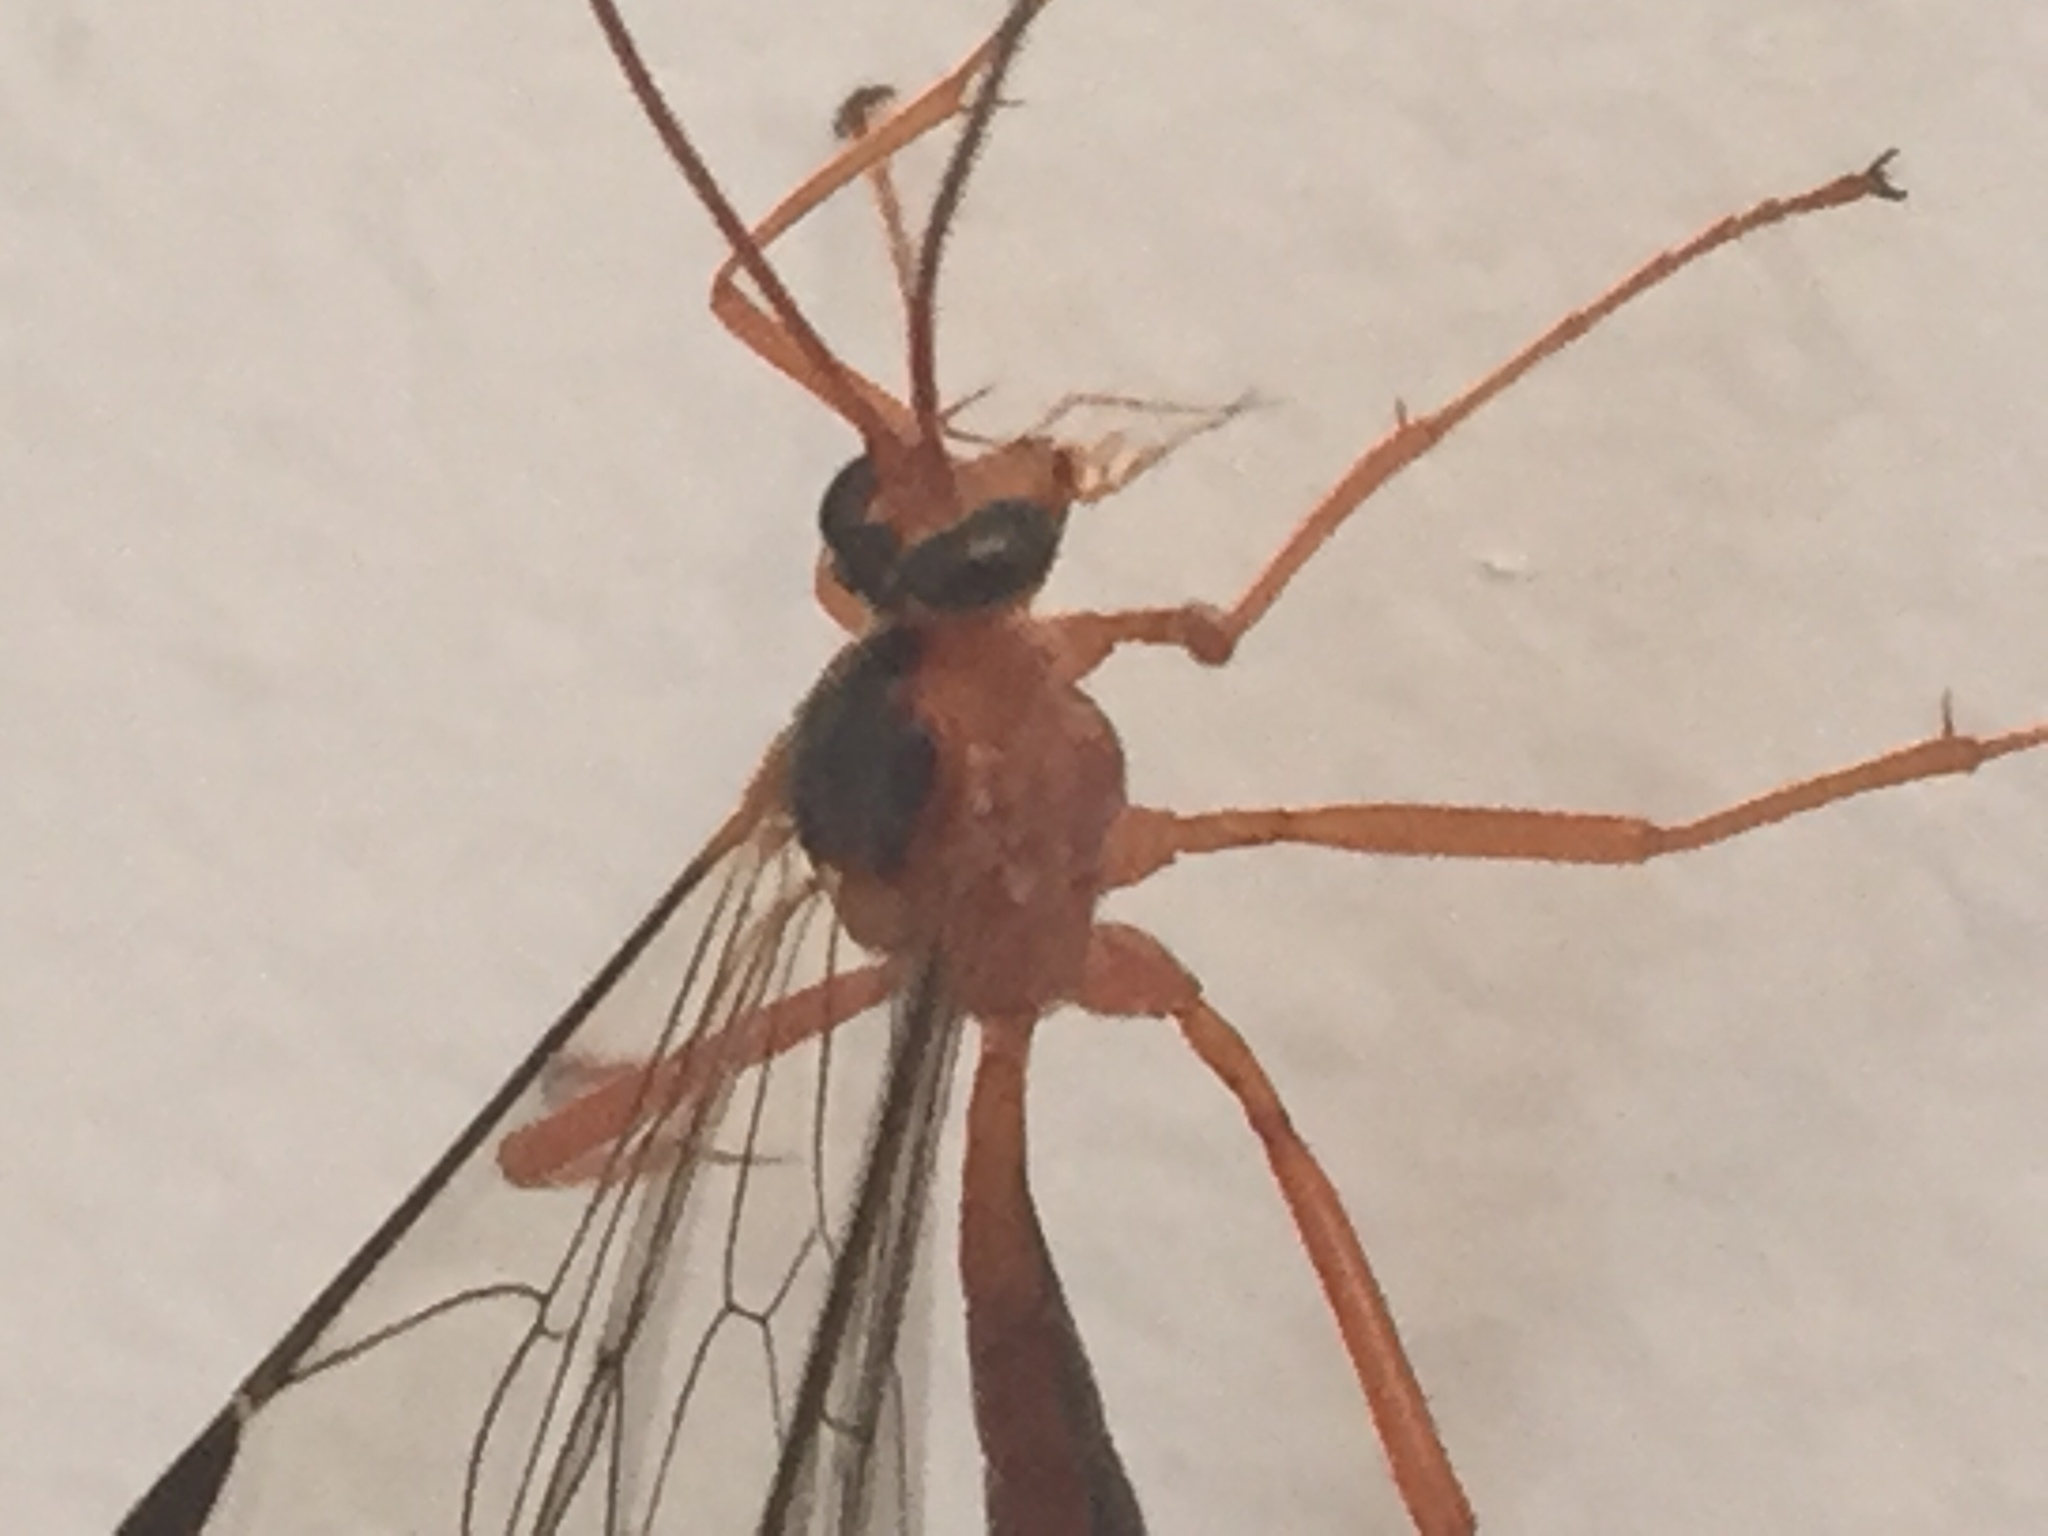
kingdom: Animalia
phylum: Arthropoda
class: Insecta
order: Hymenoptera
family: Ichneumonidae
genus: Netelia
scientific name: Netelia ephippiata
